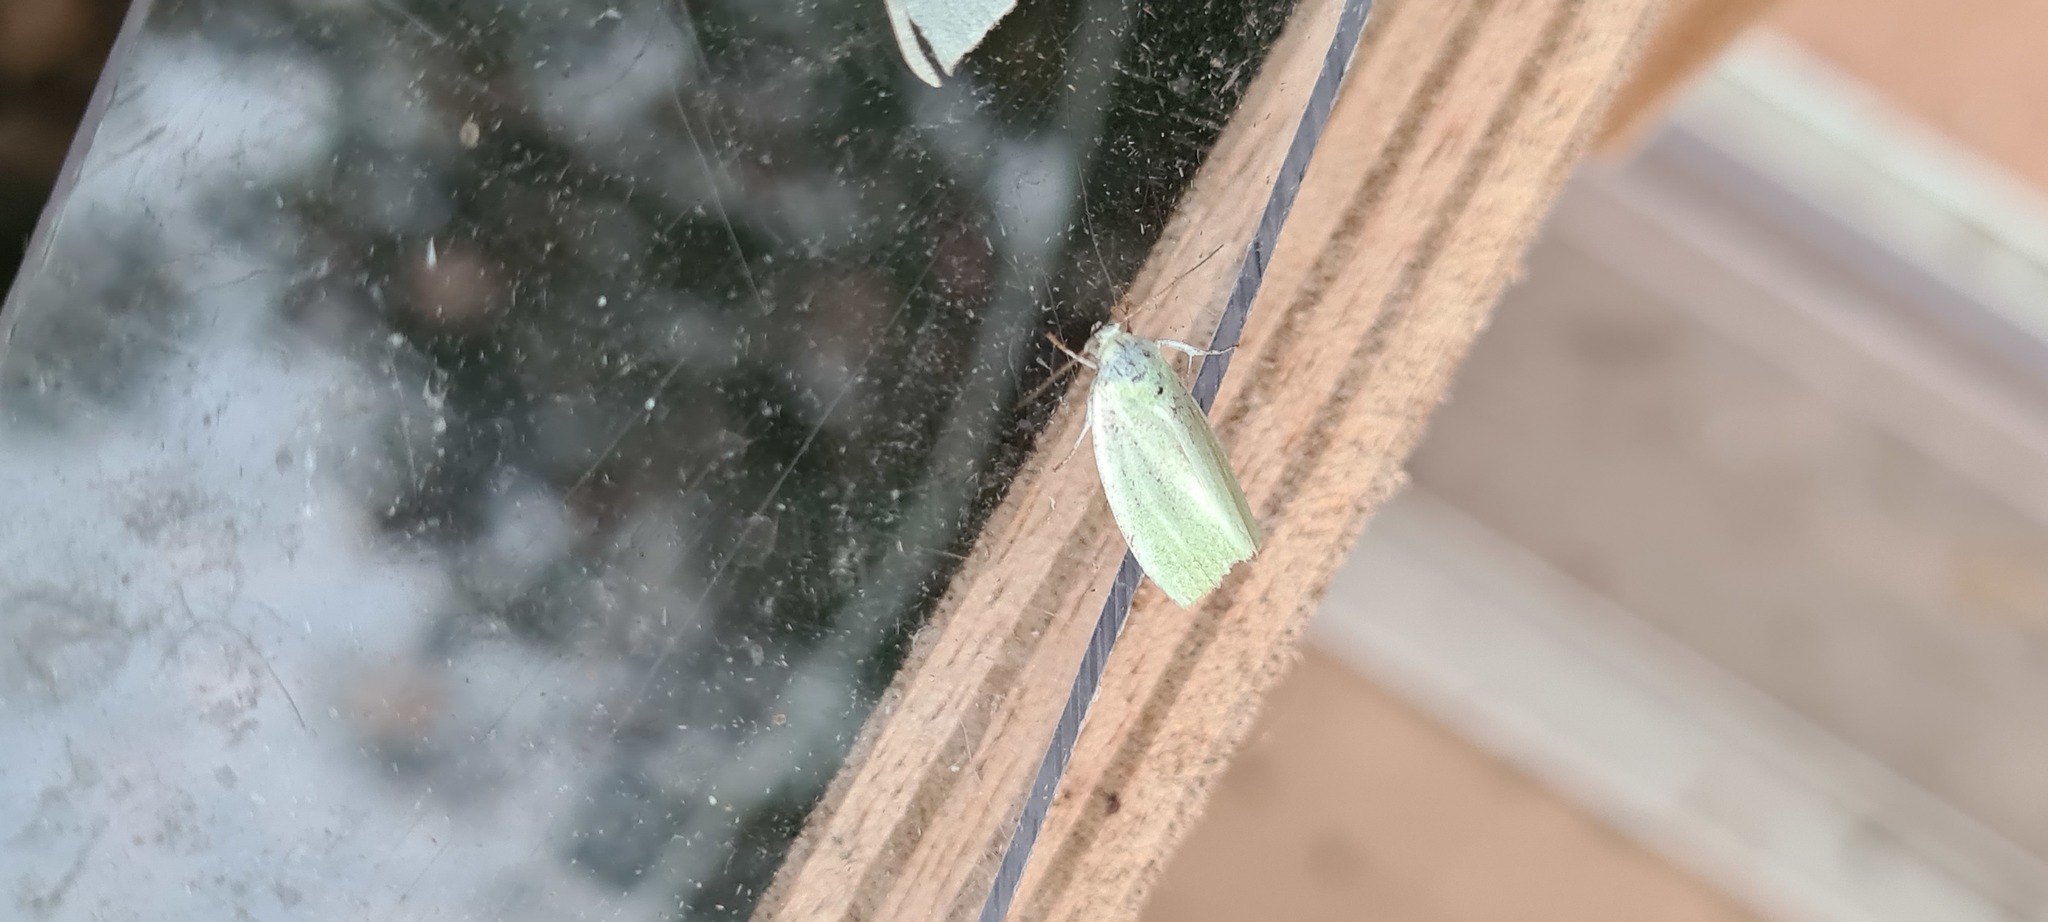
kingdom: Animalia
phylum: Arthropoda
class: Insecta
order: Lepidoptera
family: Nolidae
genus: Earias
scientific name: Earias clorana
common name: Cream-bordered green pea
